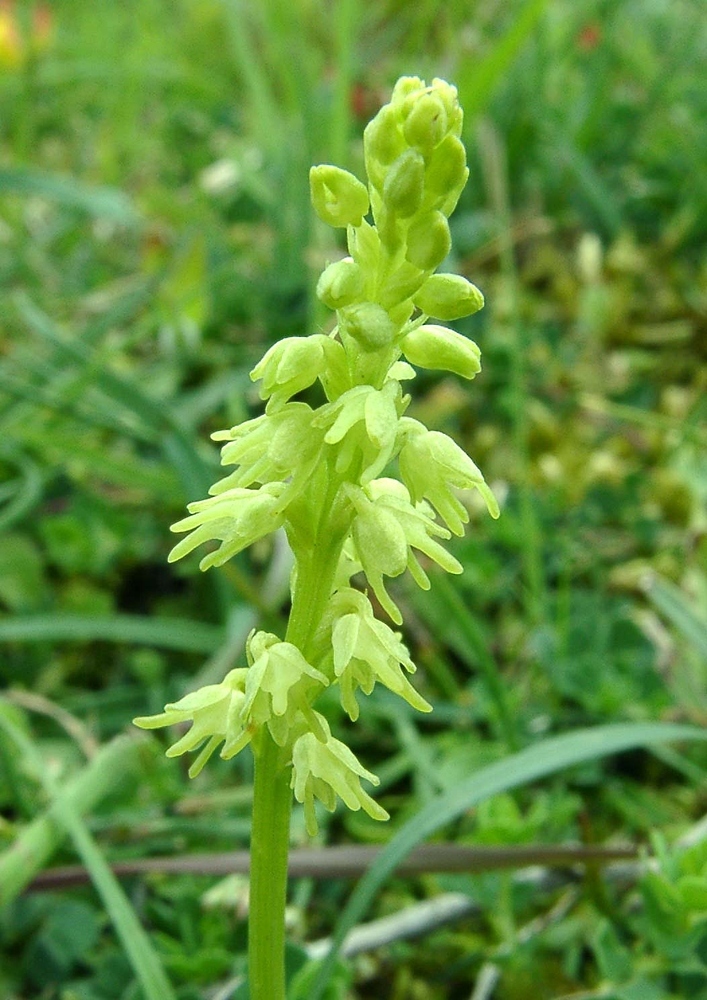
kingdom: Plantae
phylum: Tracheophyta
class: Liliopsida
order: Asparagales
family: Orchidaceae
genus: Herminium
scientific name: Herminium monorchis
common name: Musk orchid
